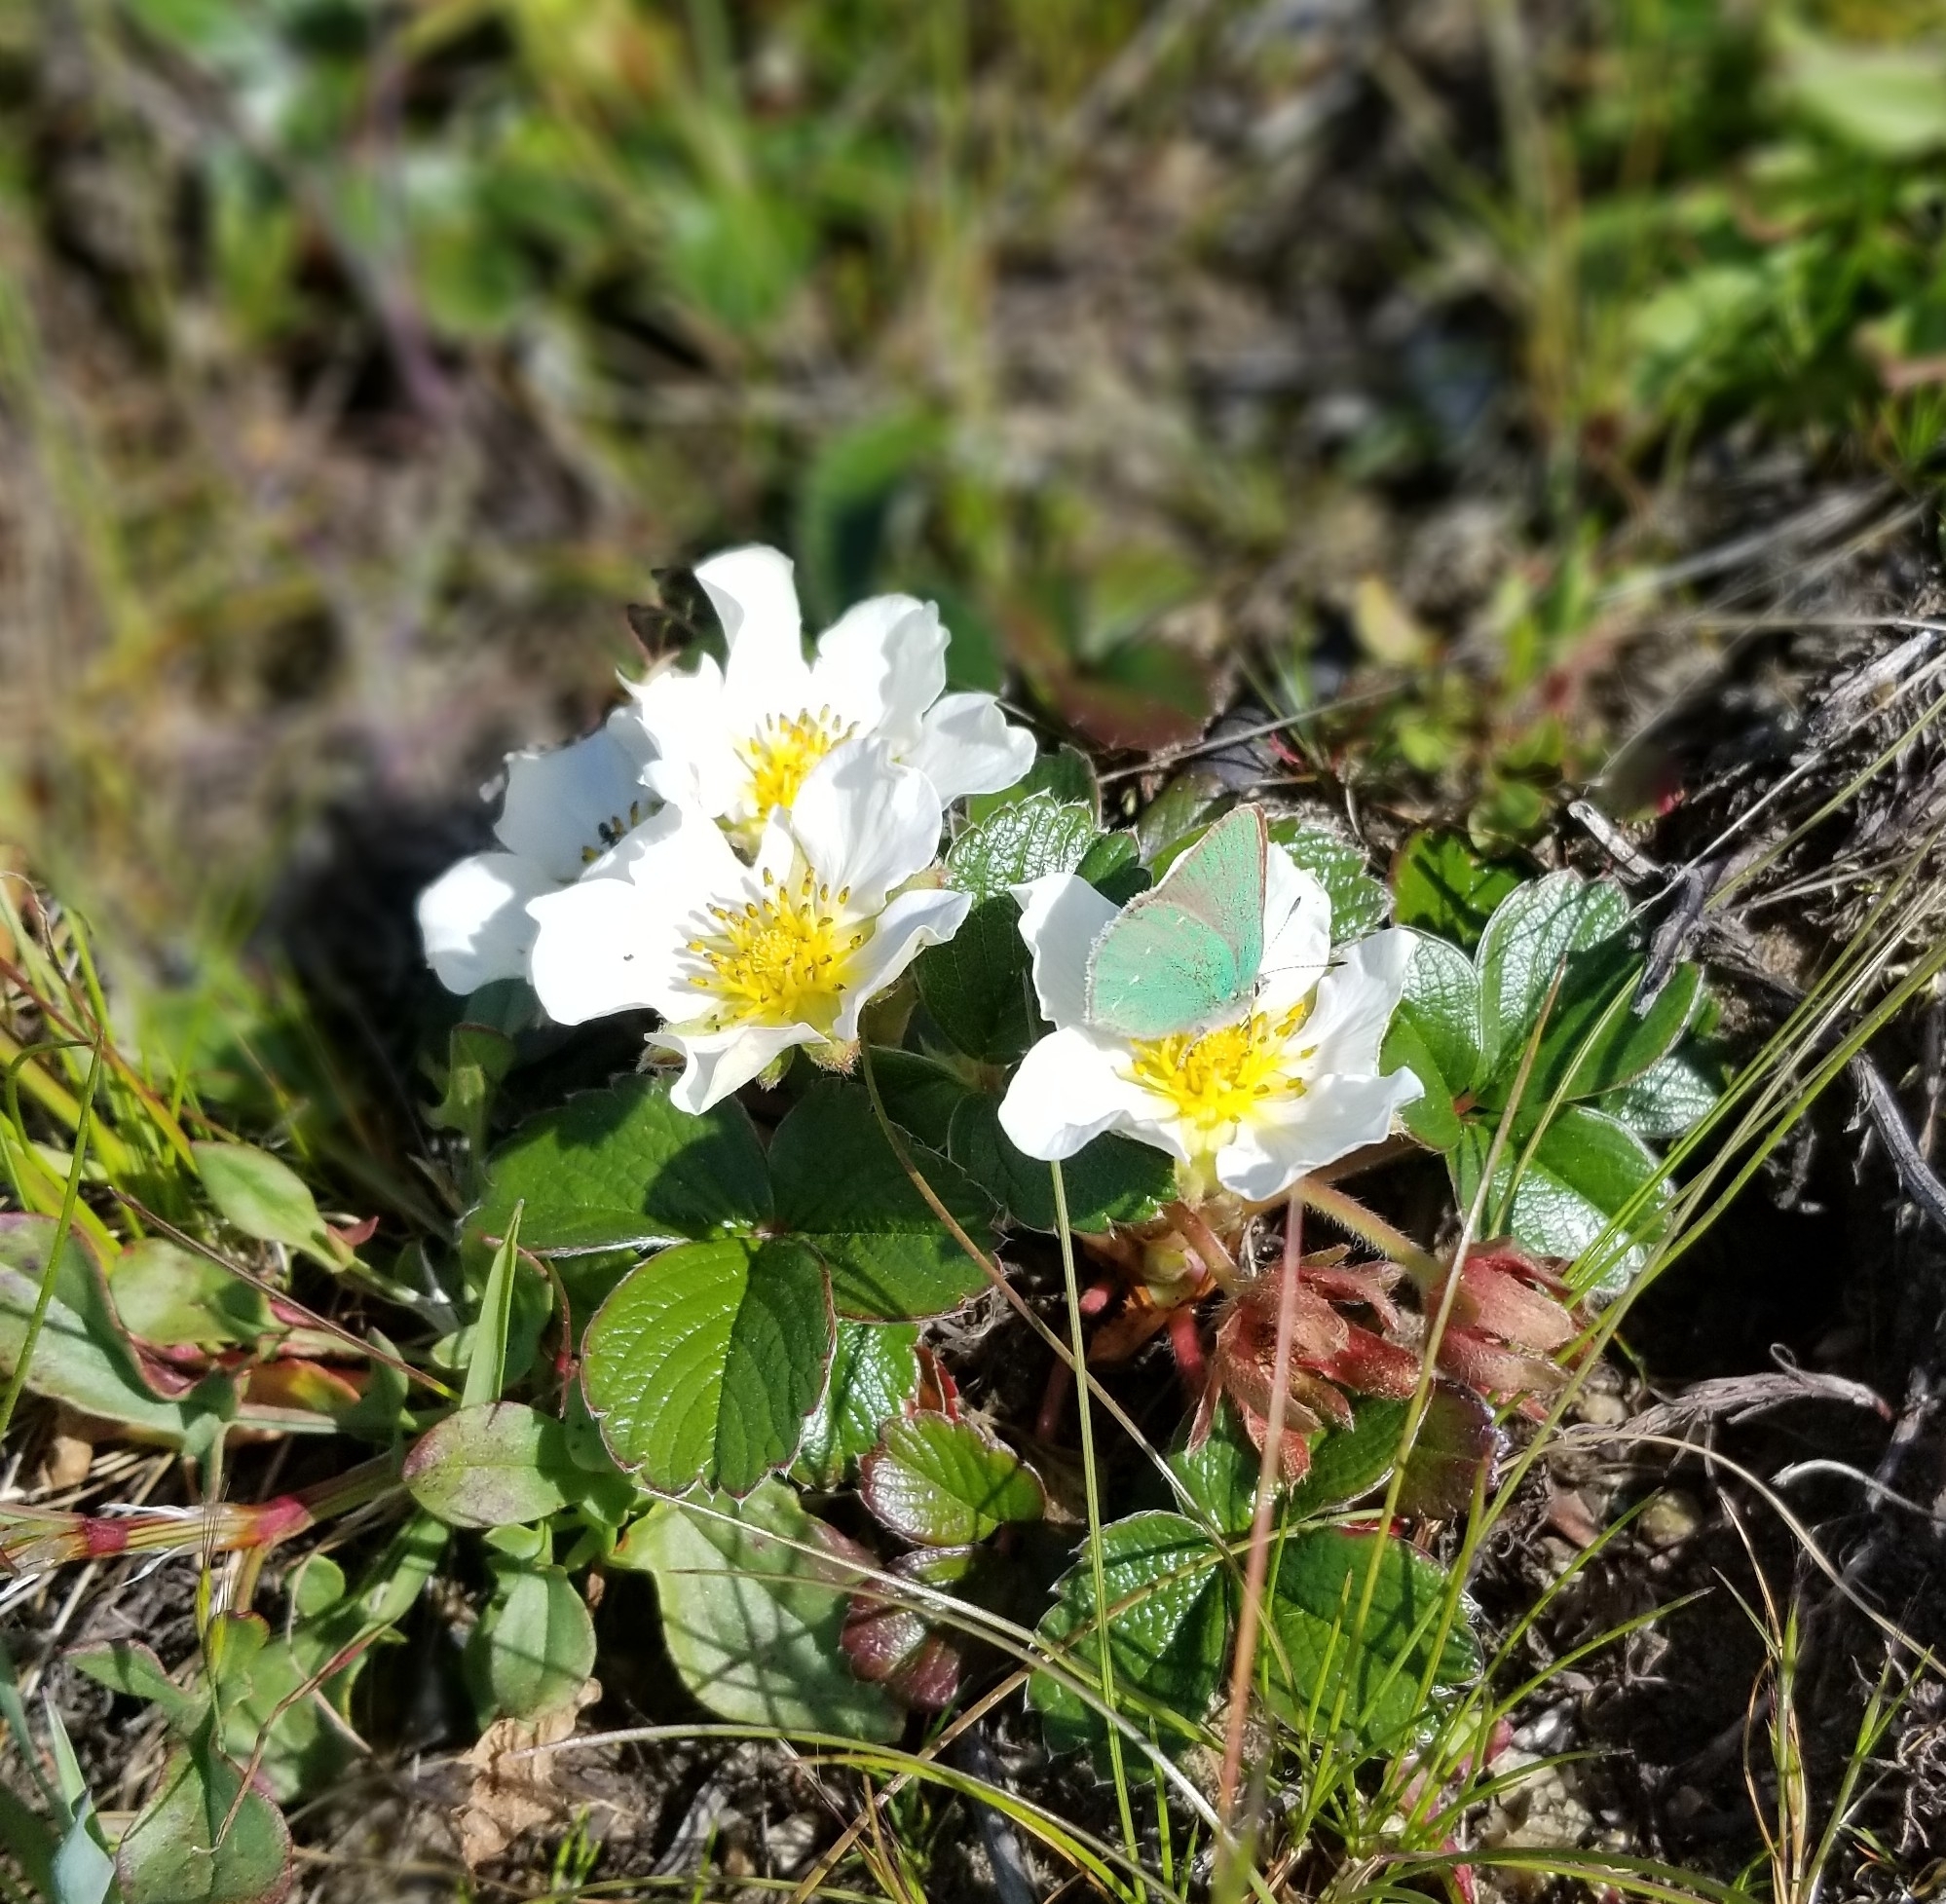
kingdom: Animalia
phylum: Arthropoda
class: Insecta
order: Lepidoptera
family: Lycaenidae
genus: Callophrys
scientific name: Callophrys viridis
